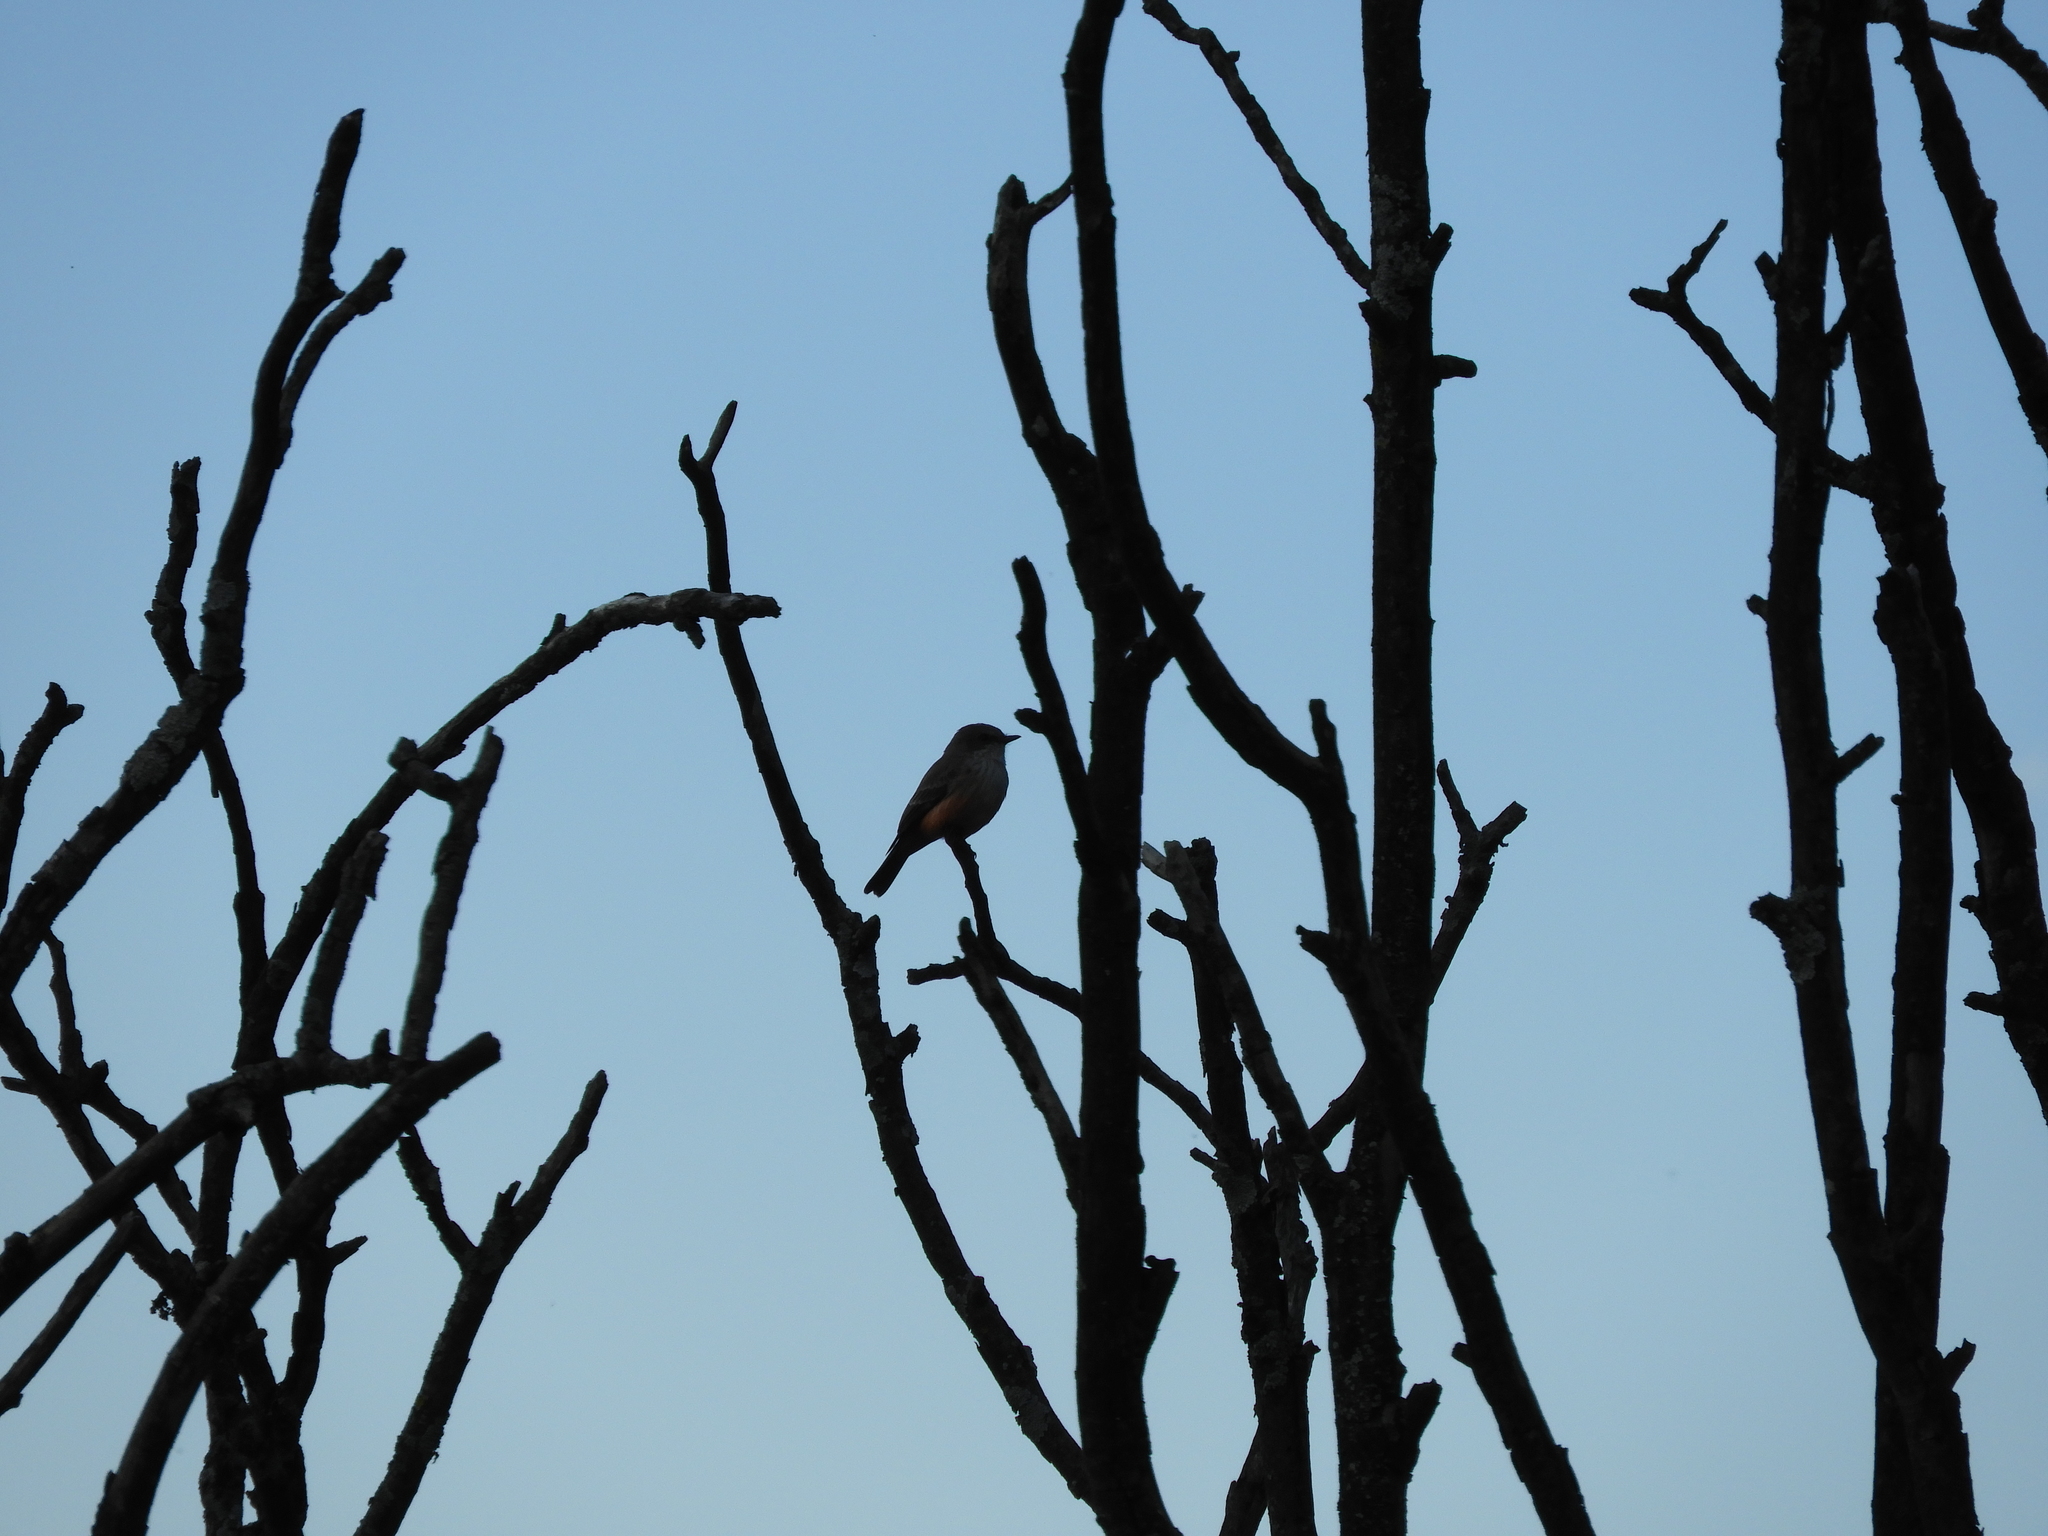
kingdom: Animalia
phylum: Chordata
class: Aves
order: Passeriformes
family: Tyrannidae
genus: Pyrocephalus
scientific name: Pyrocephalus rubinus
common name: Vermilion flycatcher
